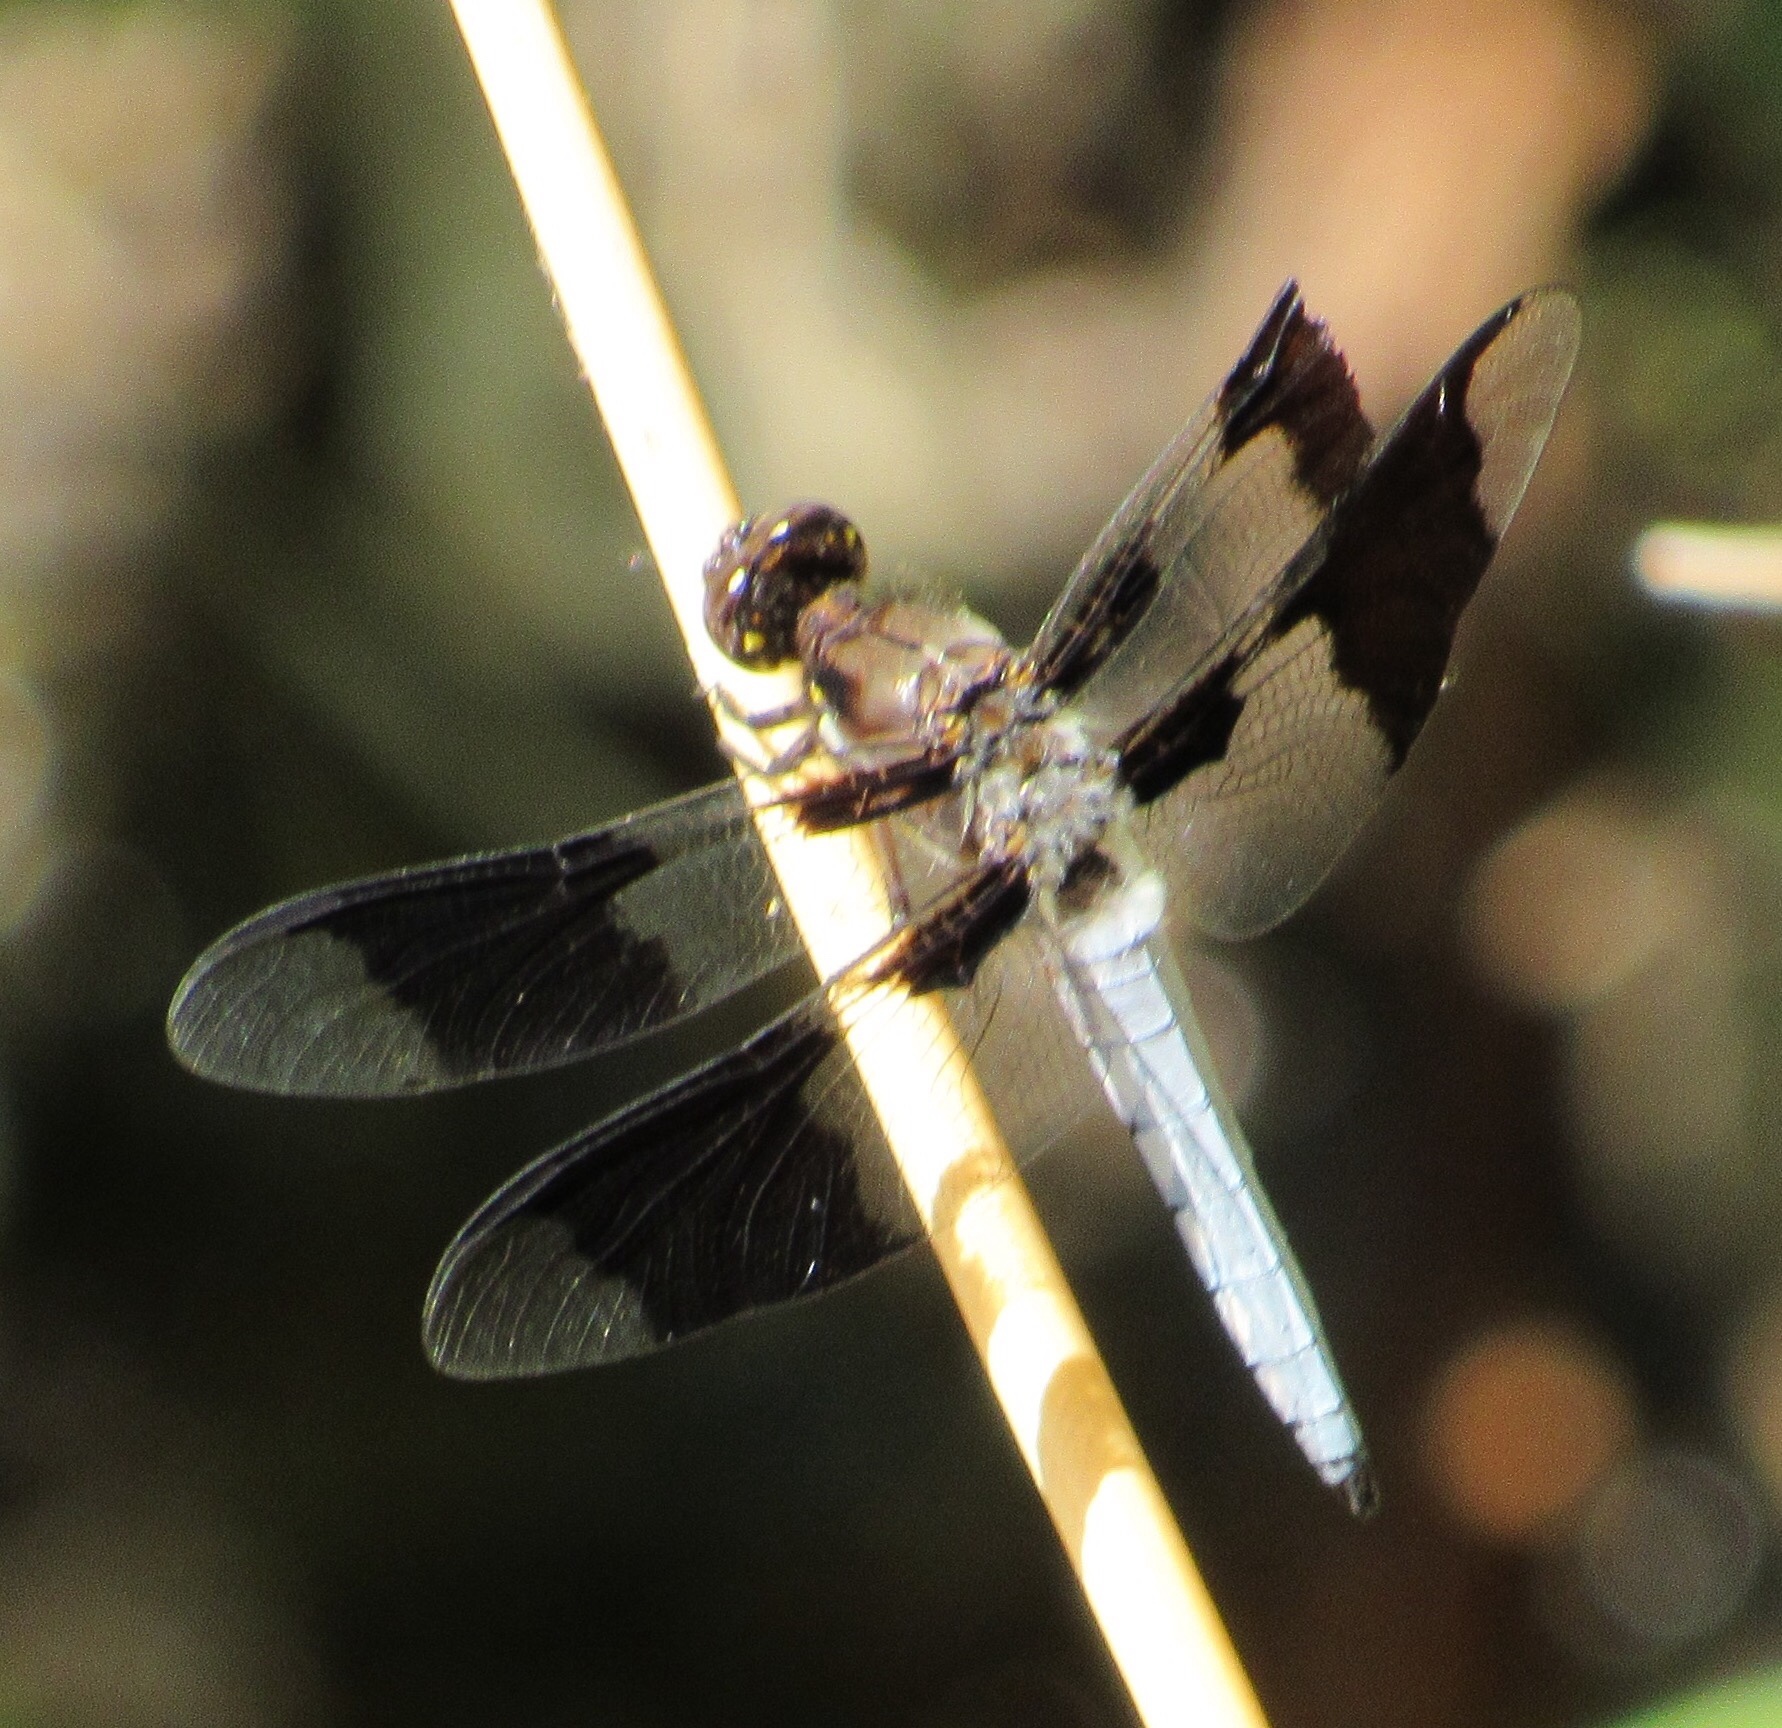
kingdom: Animalia
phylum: Arthropoda
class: Insecta
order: Odonata
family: Libellulidae
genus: Plathemis
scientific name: Plathemis lydia
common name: Common whitetail
